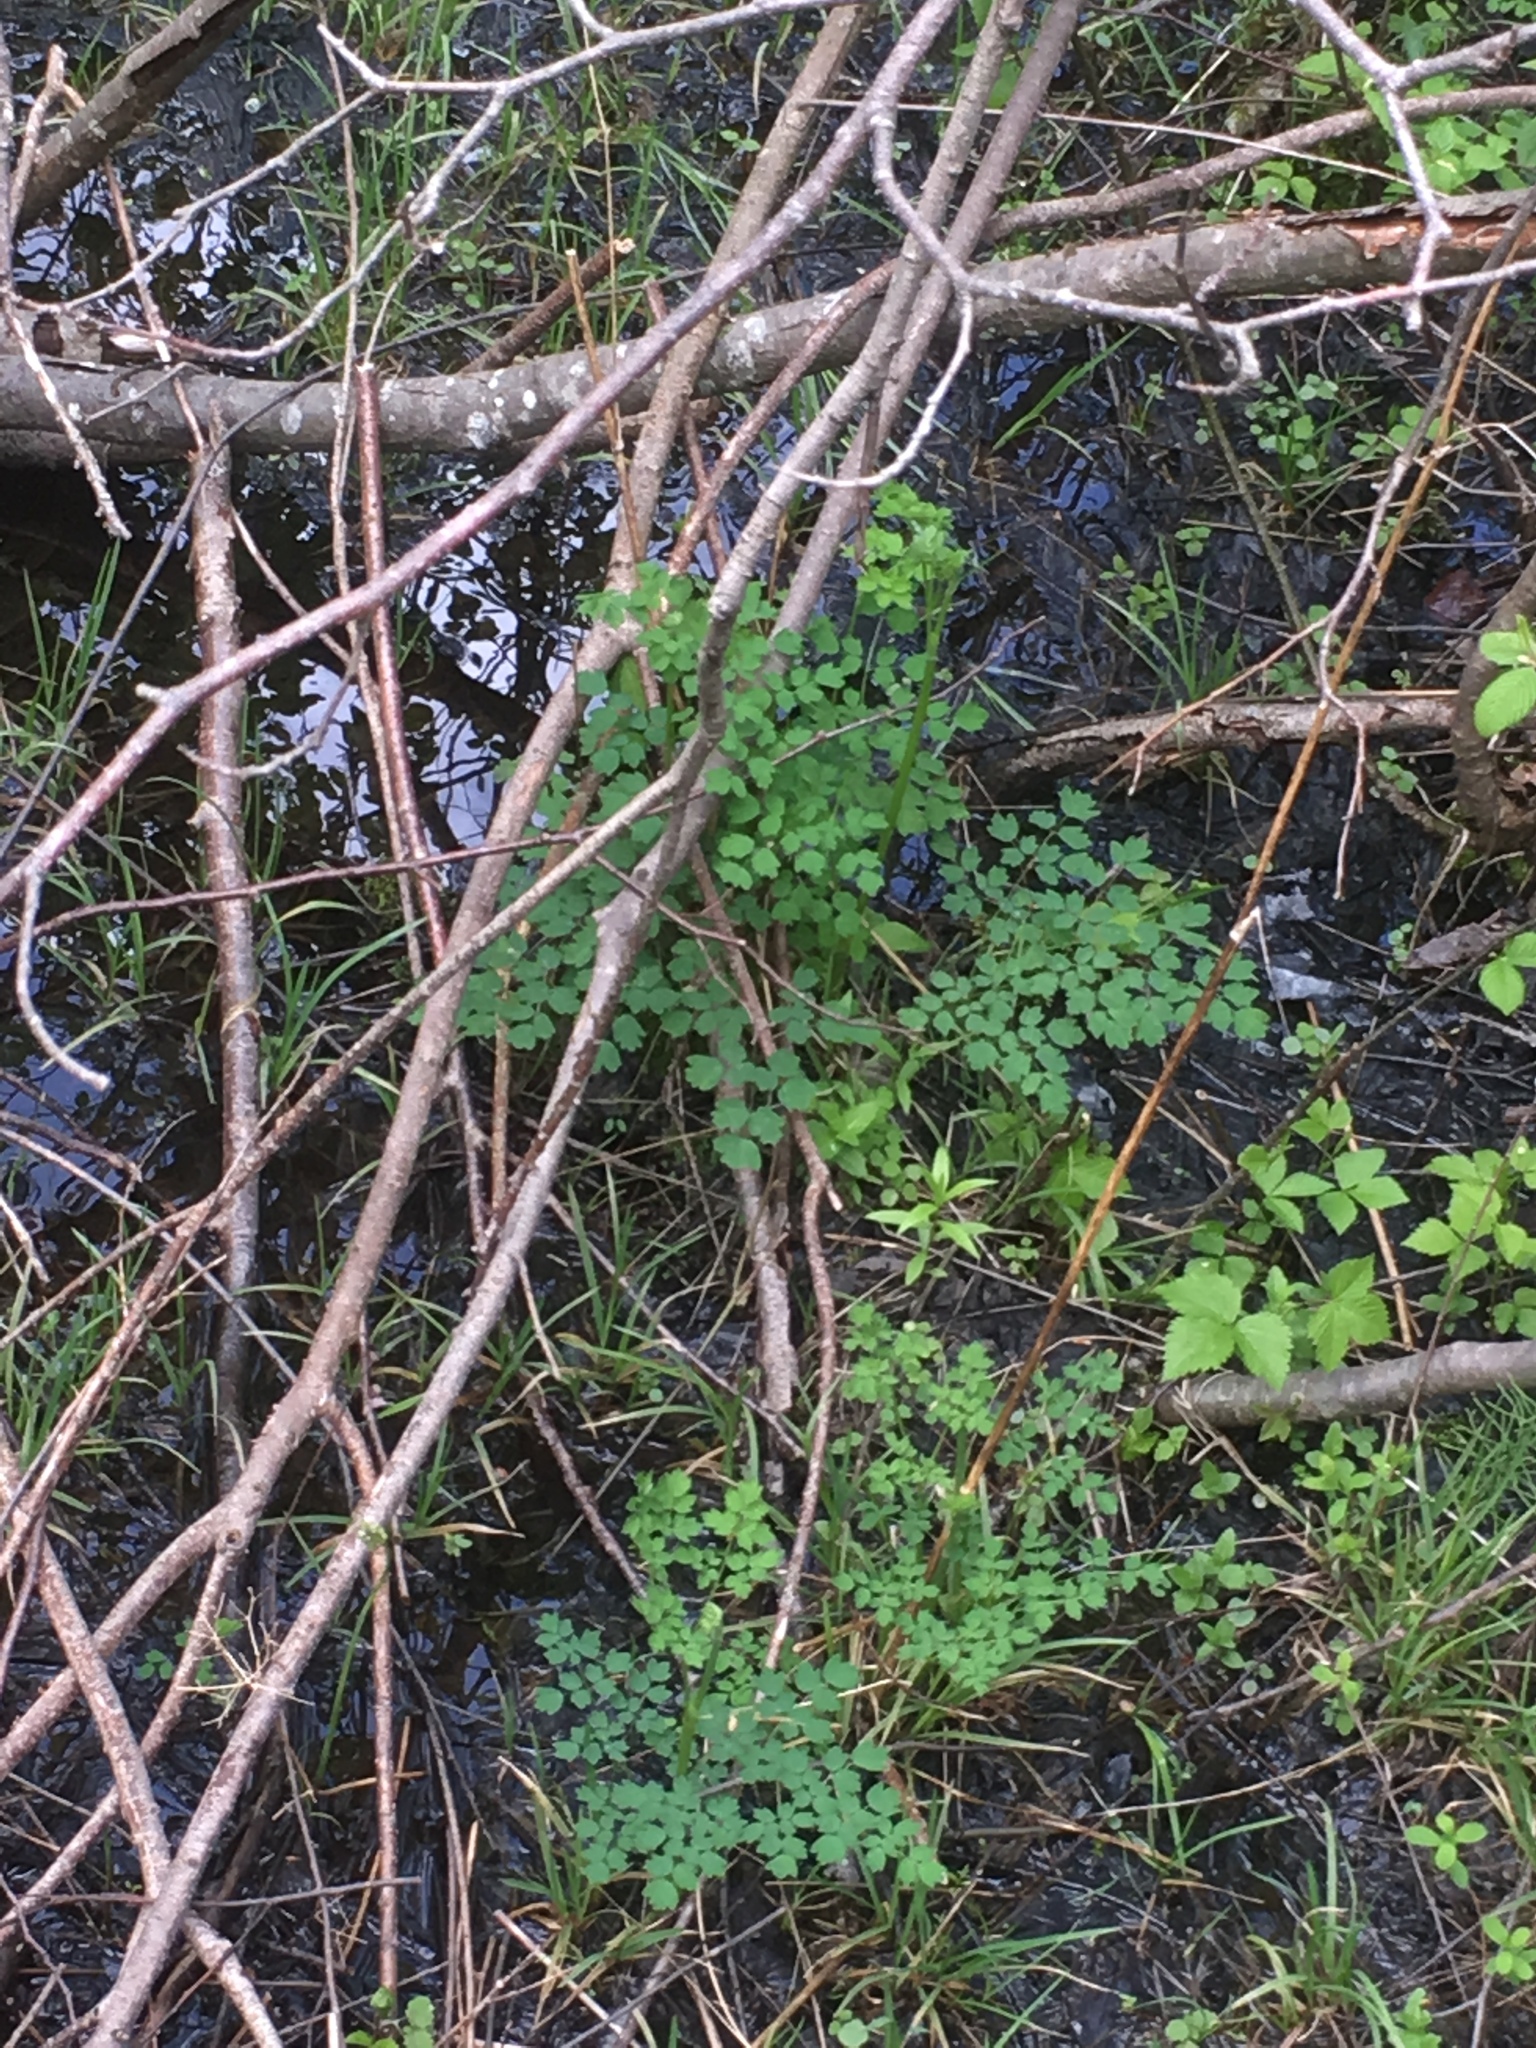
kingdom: Plantae
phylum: Tracheophyta
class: Magnoliopsida
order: Ranunculales
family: Ranunculaceae
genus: Thalictrum
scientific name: Thalictrum pubescens
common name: King-of-the-meadow
